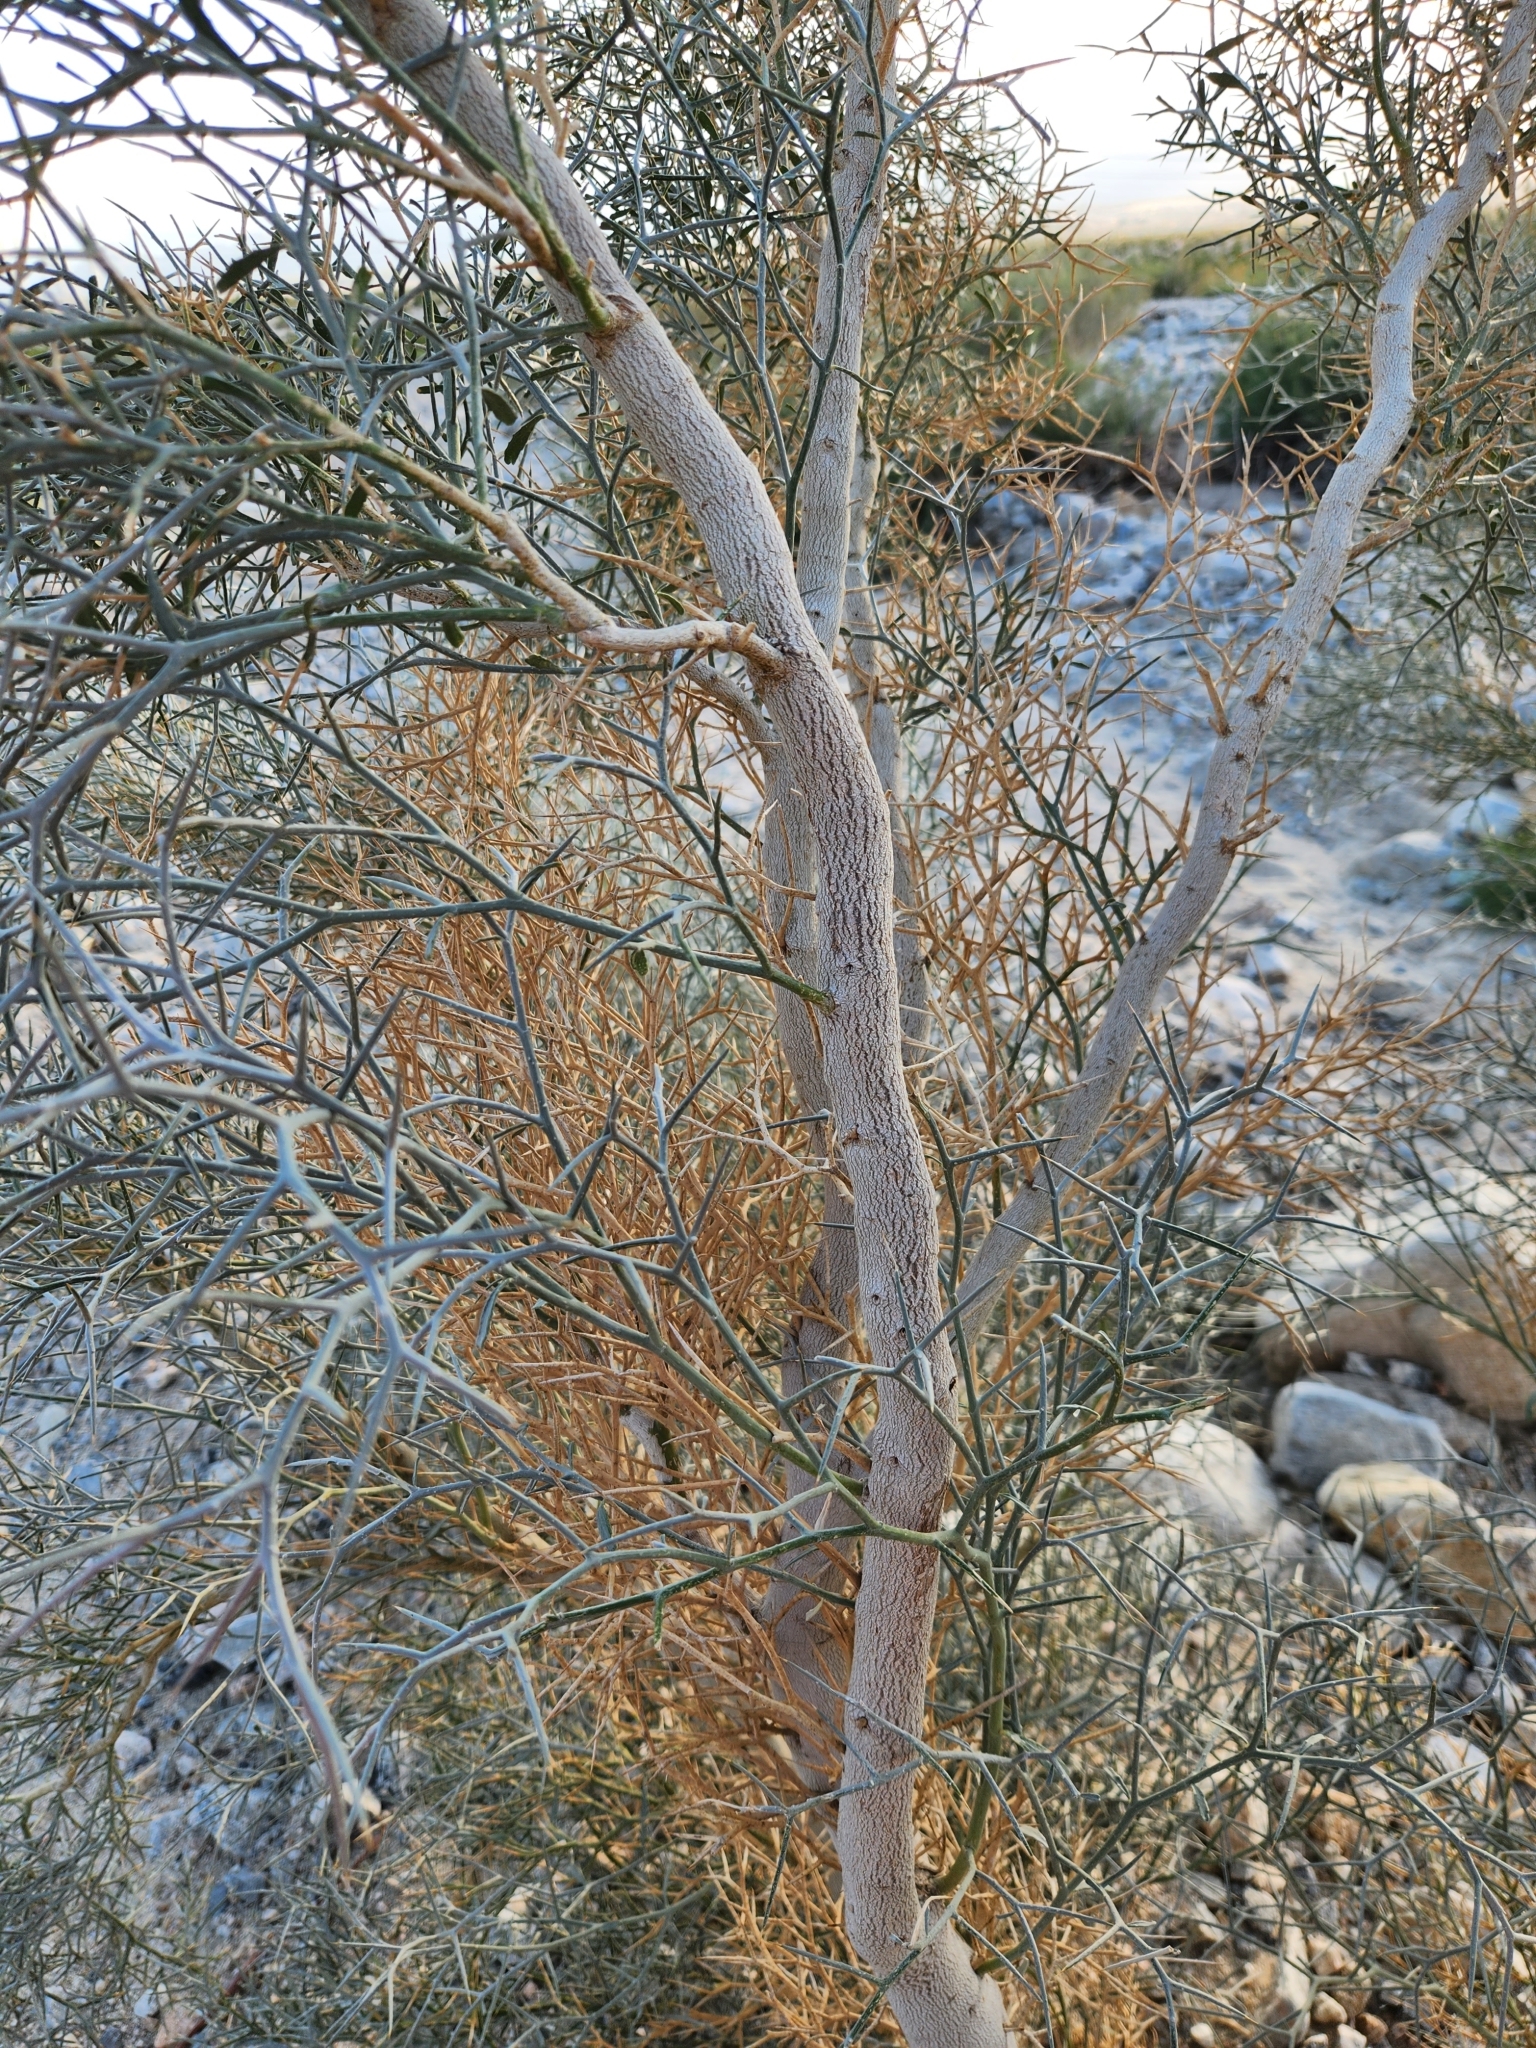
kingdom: Plantae
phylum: Tracheophyta
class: Magnoliopsida
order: Fabales
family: Fabaceae
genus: Psorothamnus
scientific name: Psorothamnus spinosus
